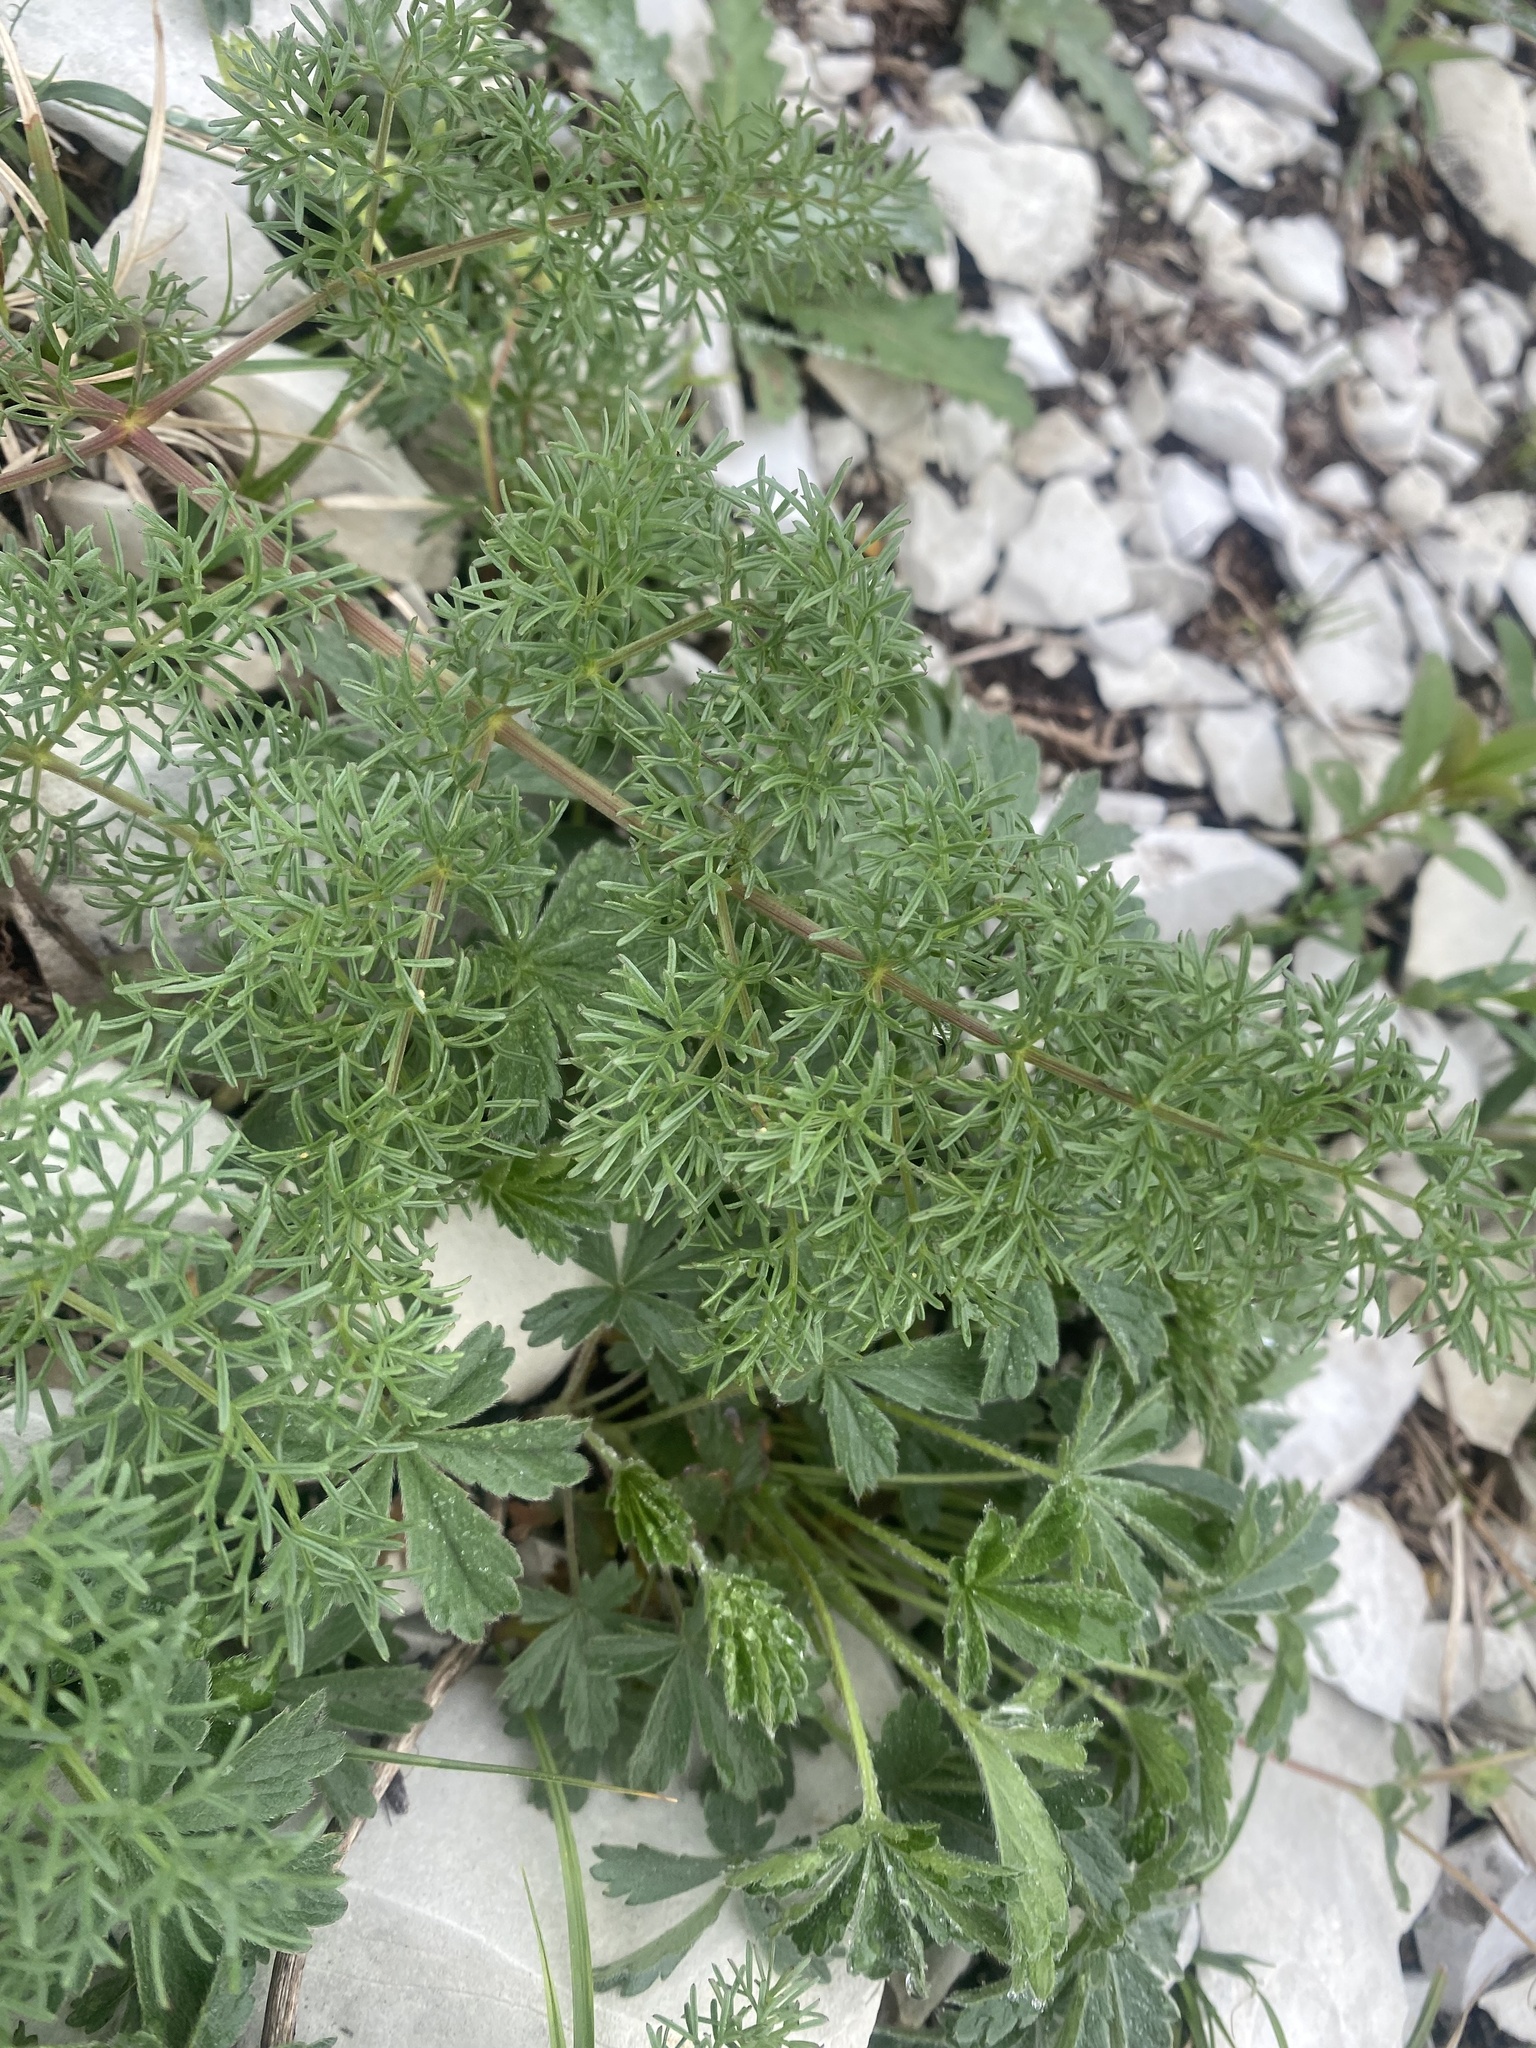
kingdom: Plantae
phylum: Tracheophyta
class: Magnoliopsida
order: Apiales
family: Apiaceae
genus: Ferulago
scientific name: Ferulago galbanifera
